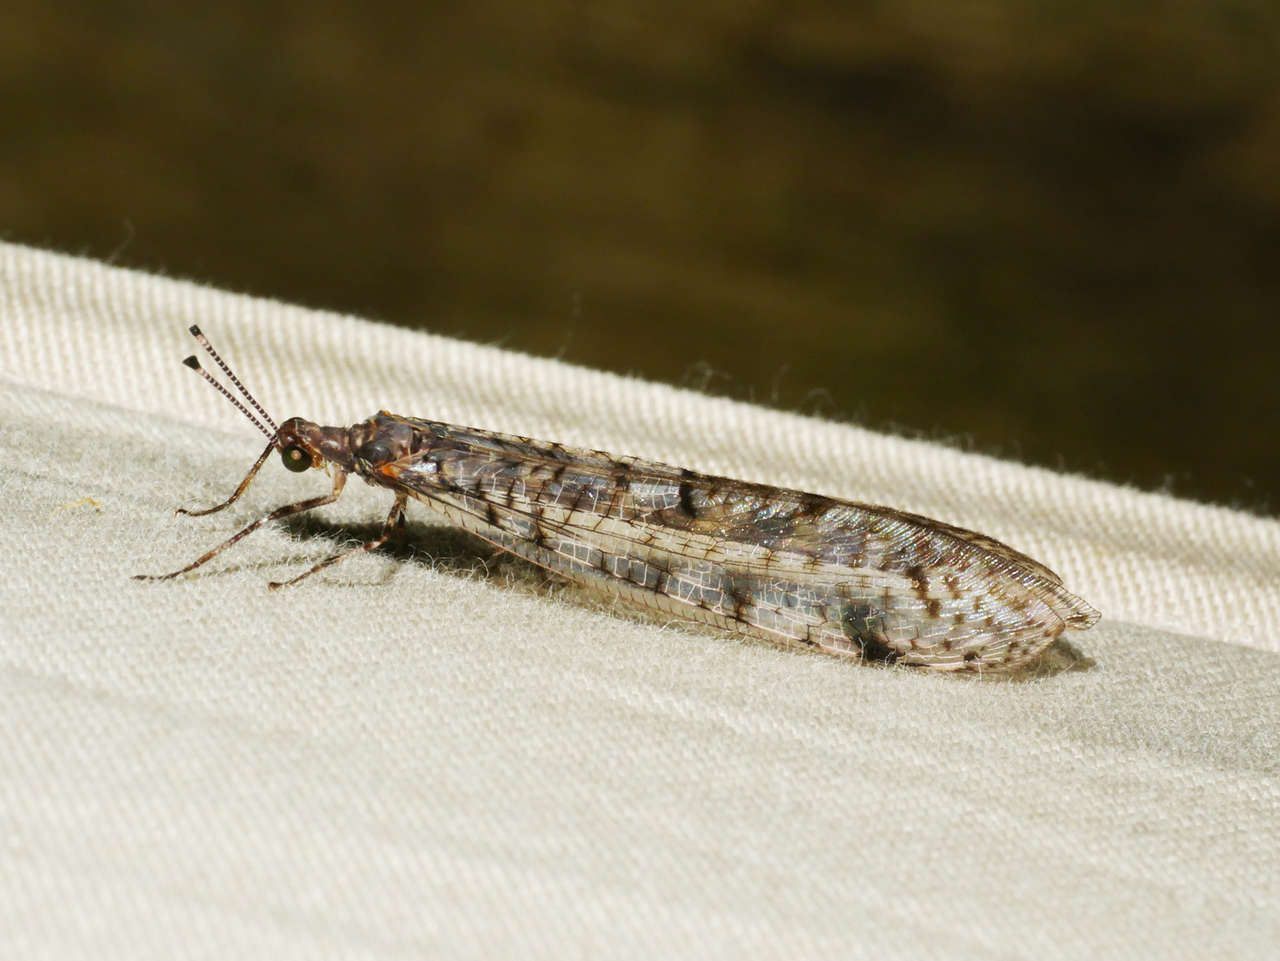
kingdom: Animalia
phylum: Arthropoda
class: Insecta
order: Neuroptera
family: Myrmeleontidae
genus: Dendroleon
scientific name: Dendroleon longipennis
